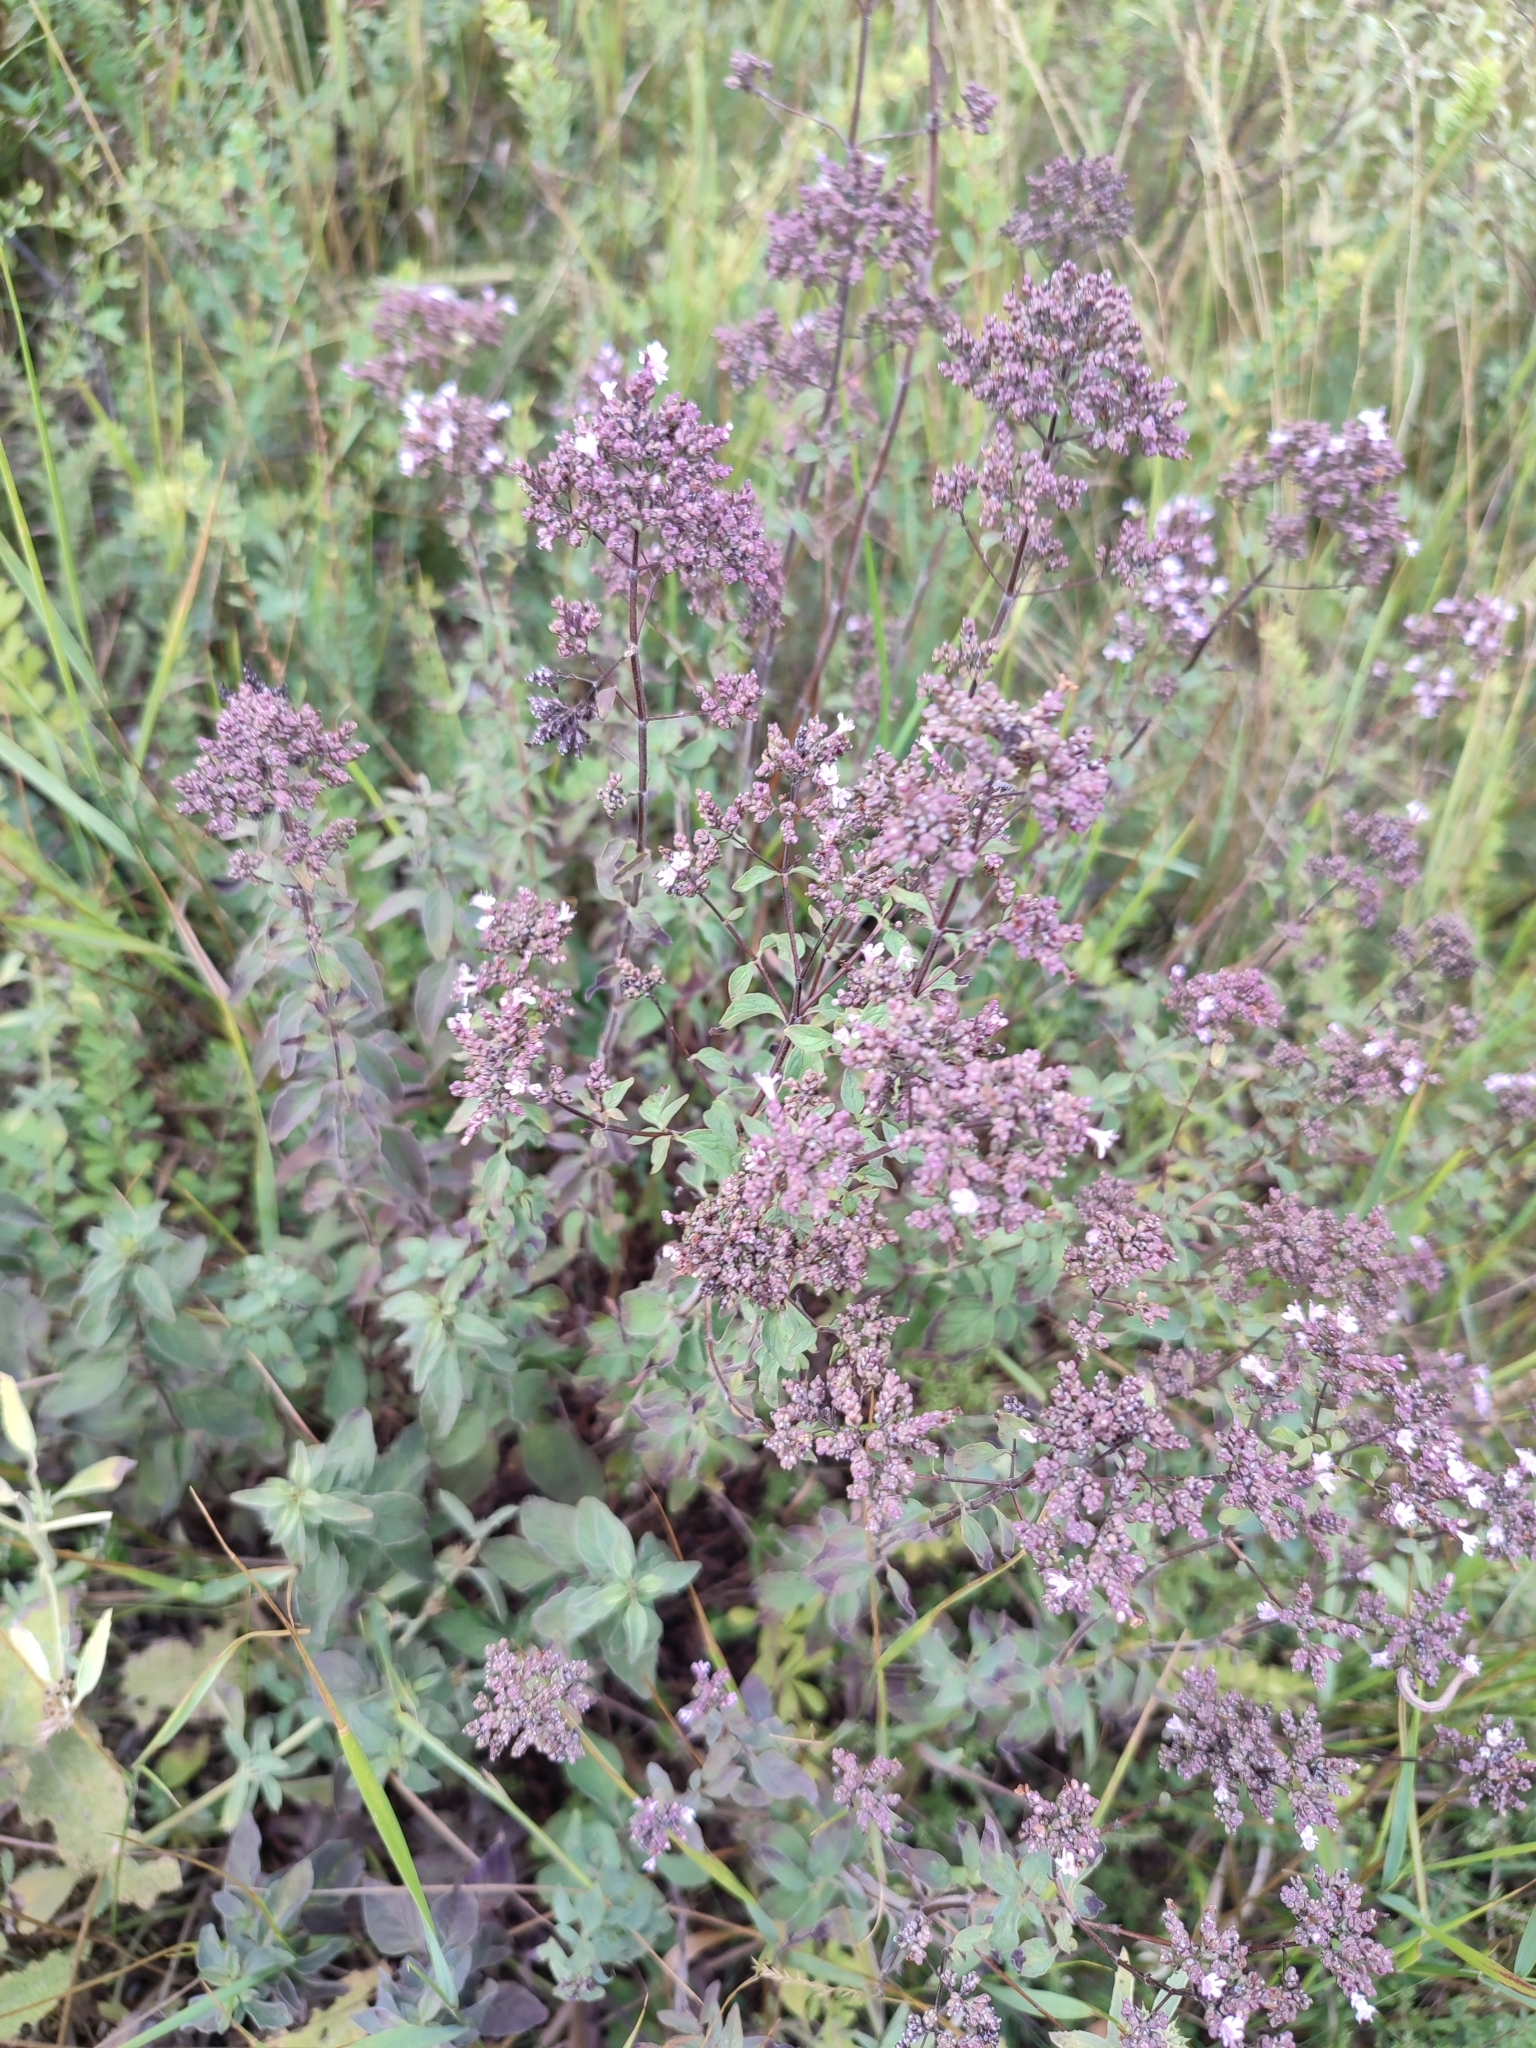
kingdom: Plantae
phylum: Tracheophyta
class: Magnoliopsida
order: Lamiales
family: Lamiaceae
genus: Origanum
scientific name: Origanum vulgare
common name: Wild marjoram
